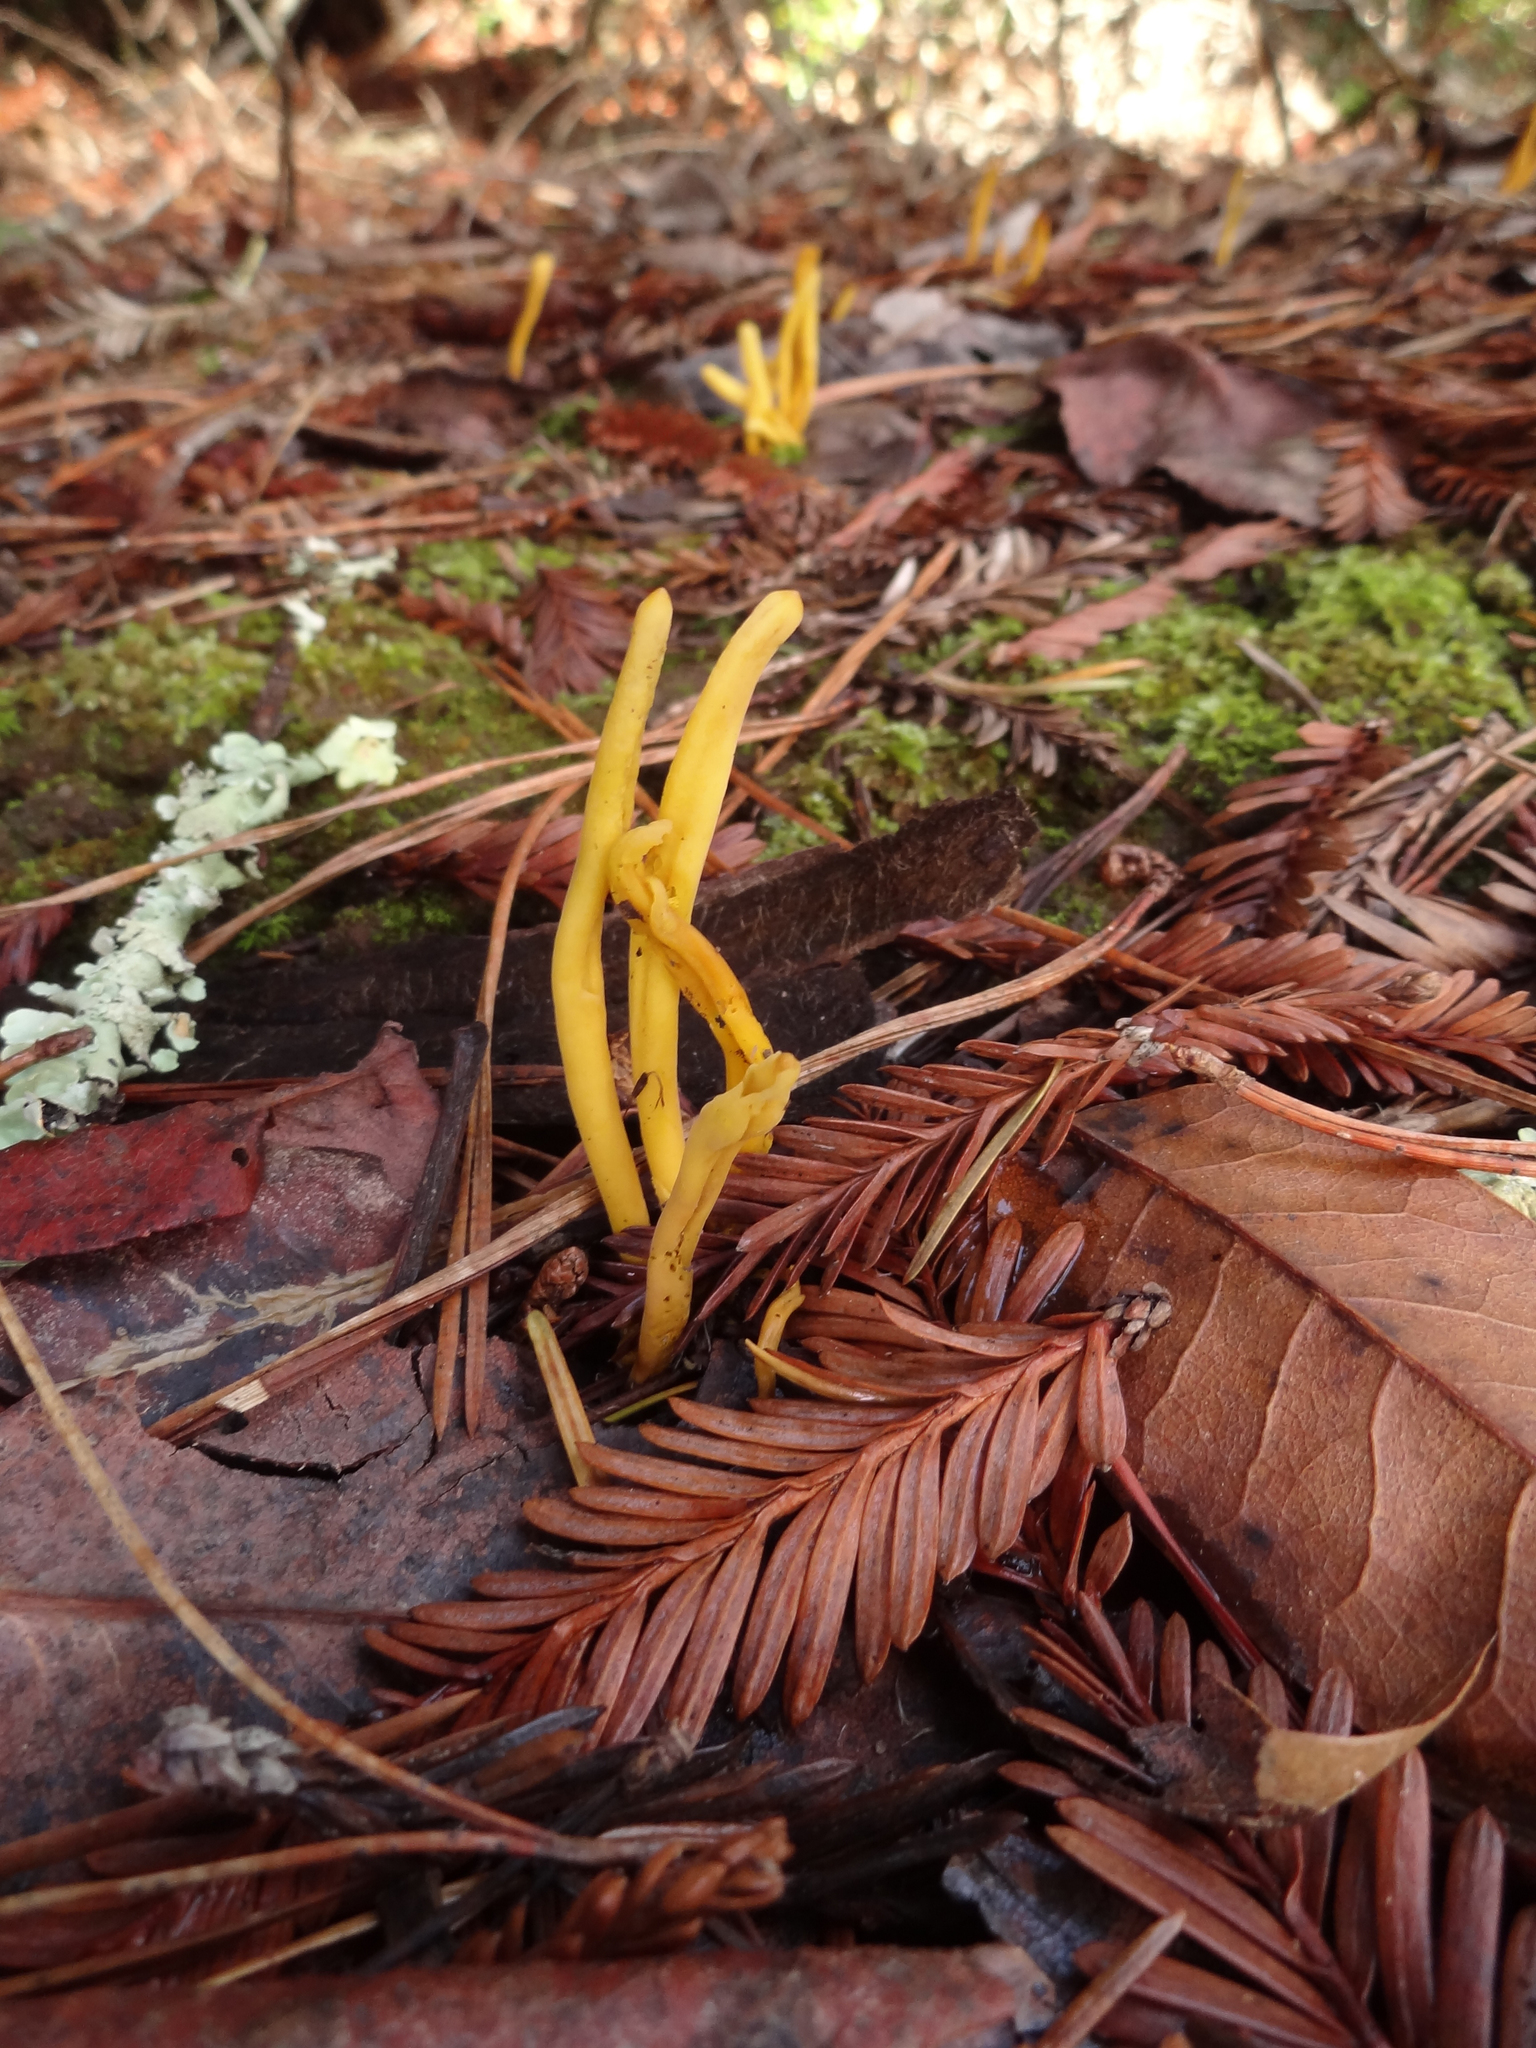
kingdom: Fungi
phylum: Basidiomycota
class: Agaricomycetes
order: Agaricales
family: Clavariaceae
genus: Clavulinopsis
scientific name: Clavulinopsis laeticolor
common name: Handsome club
